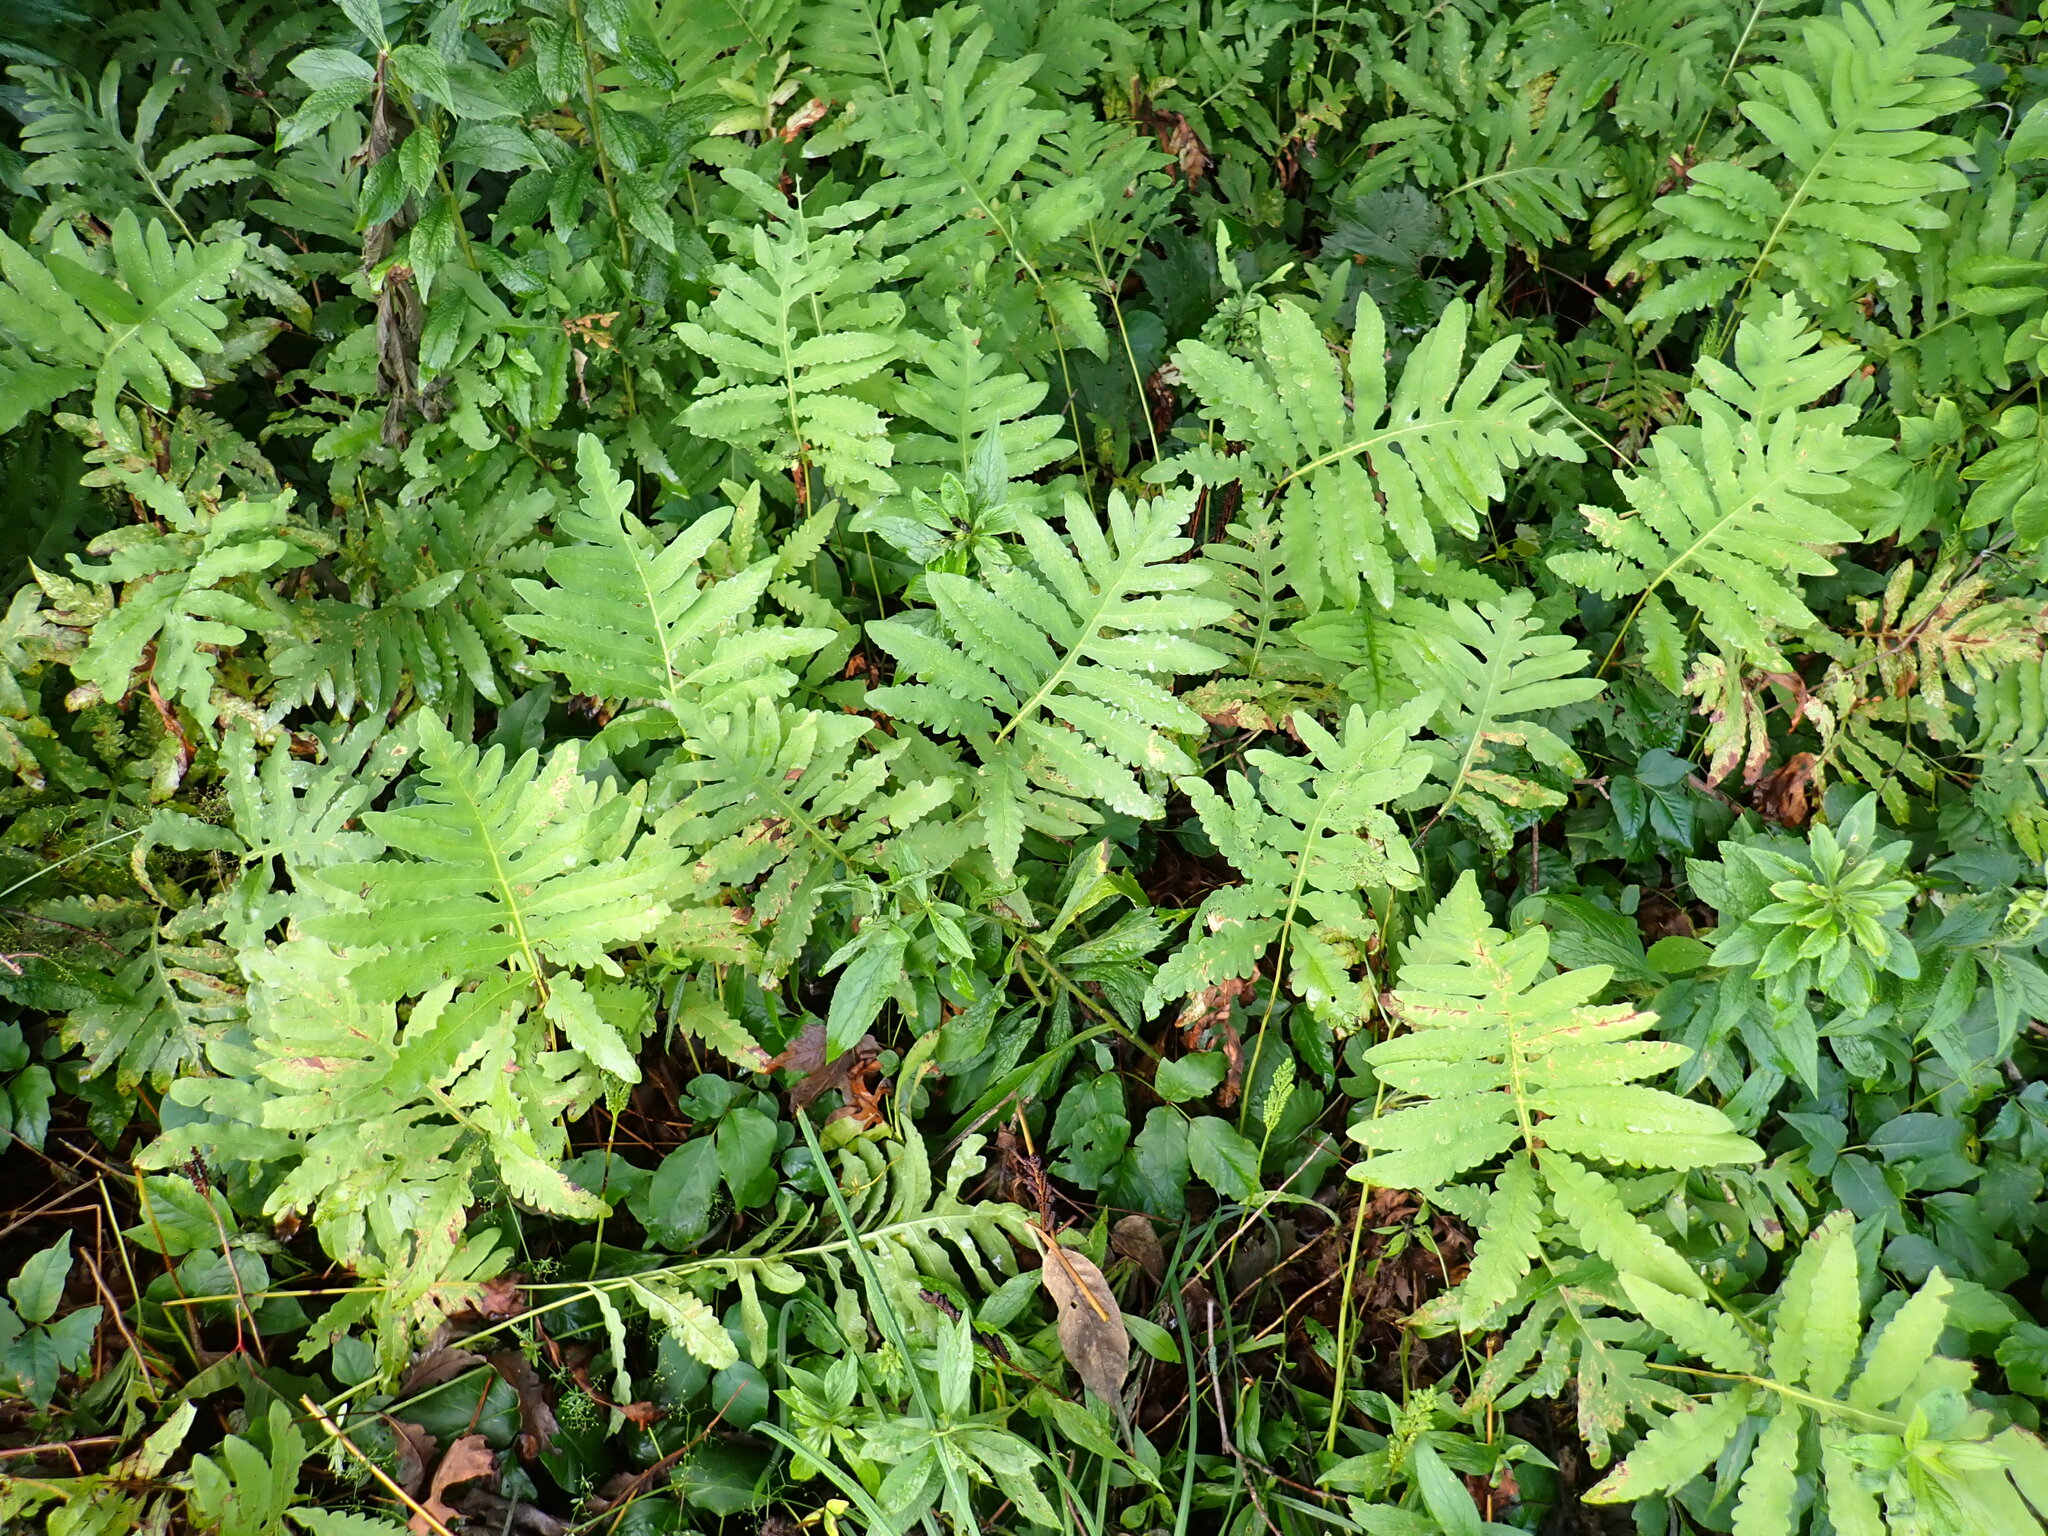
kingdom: Plantae
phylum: Tracheophyta
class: Polypodiopsida
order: Polypodiales
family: Onocleaceae
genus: Onoclea
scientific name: Onoclea sensibilis
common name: Sensitive fern
